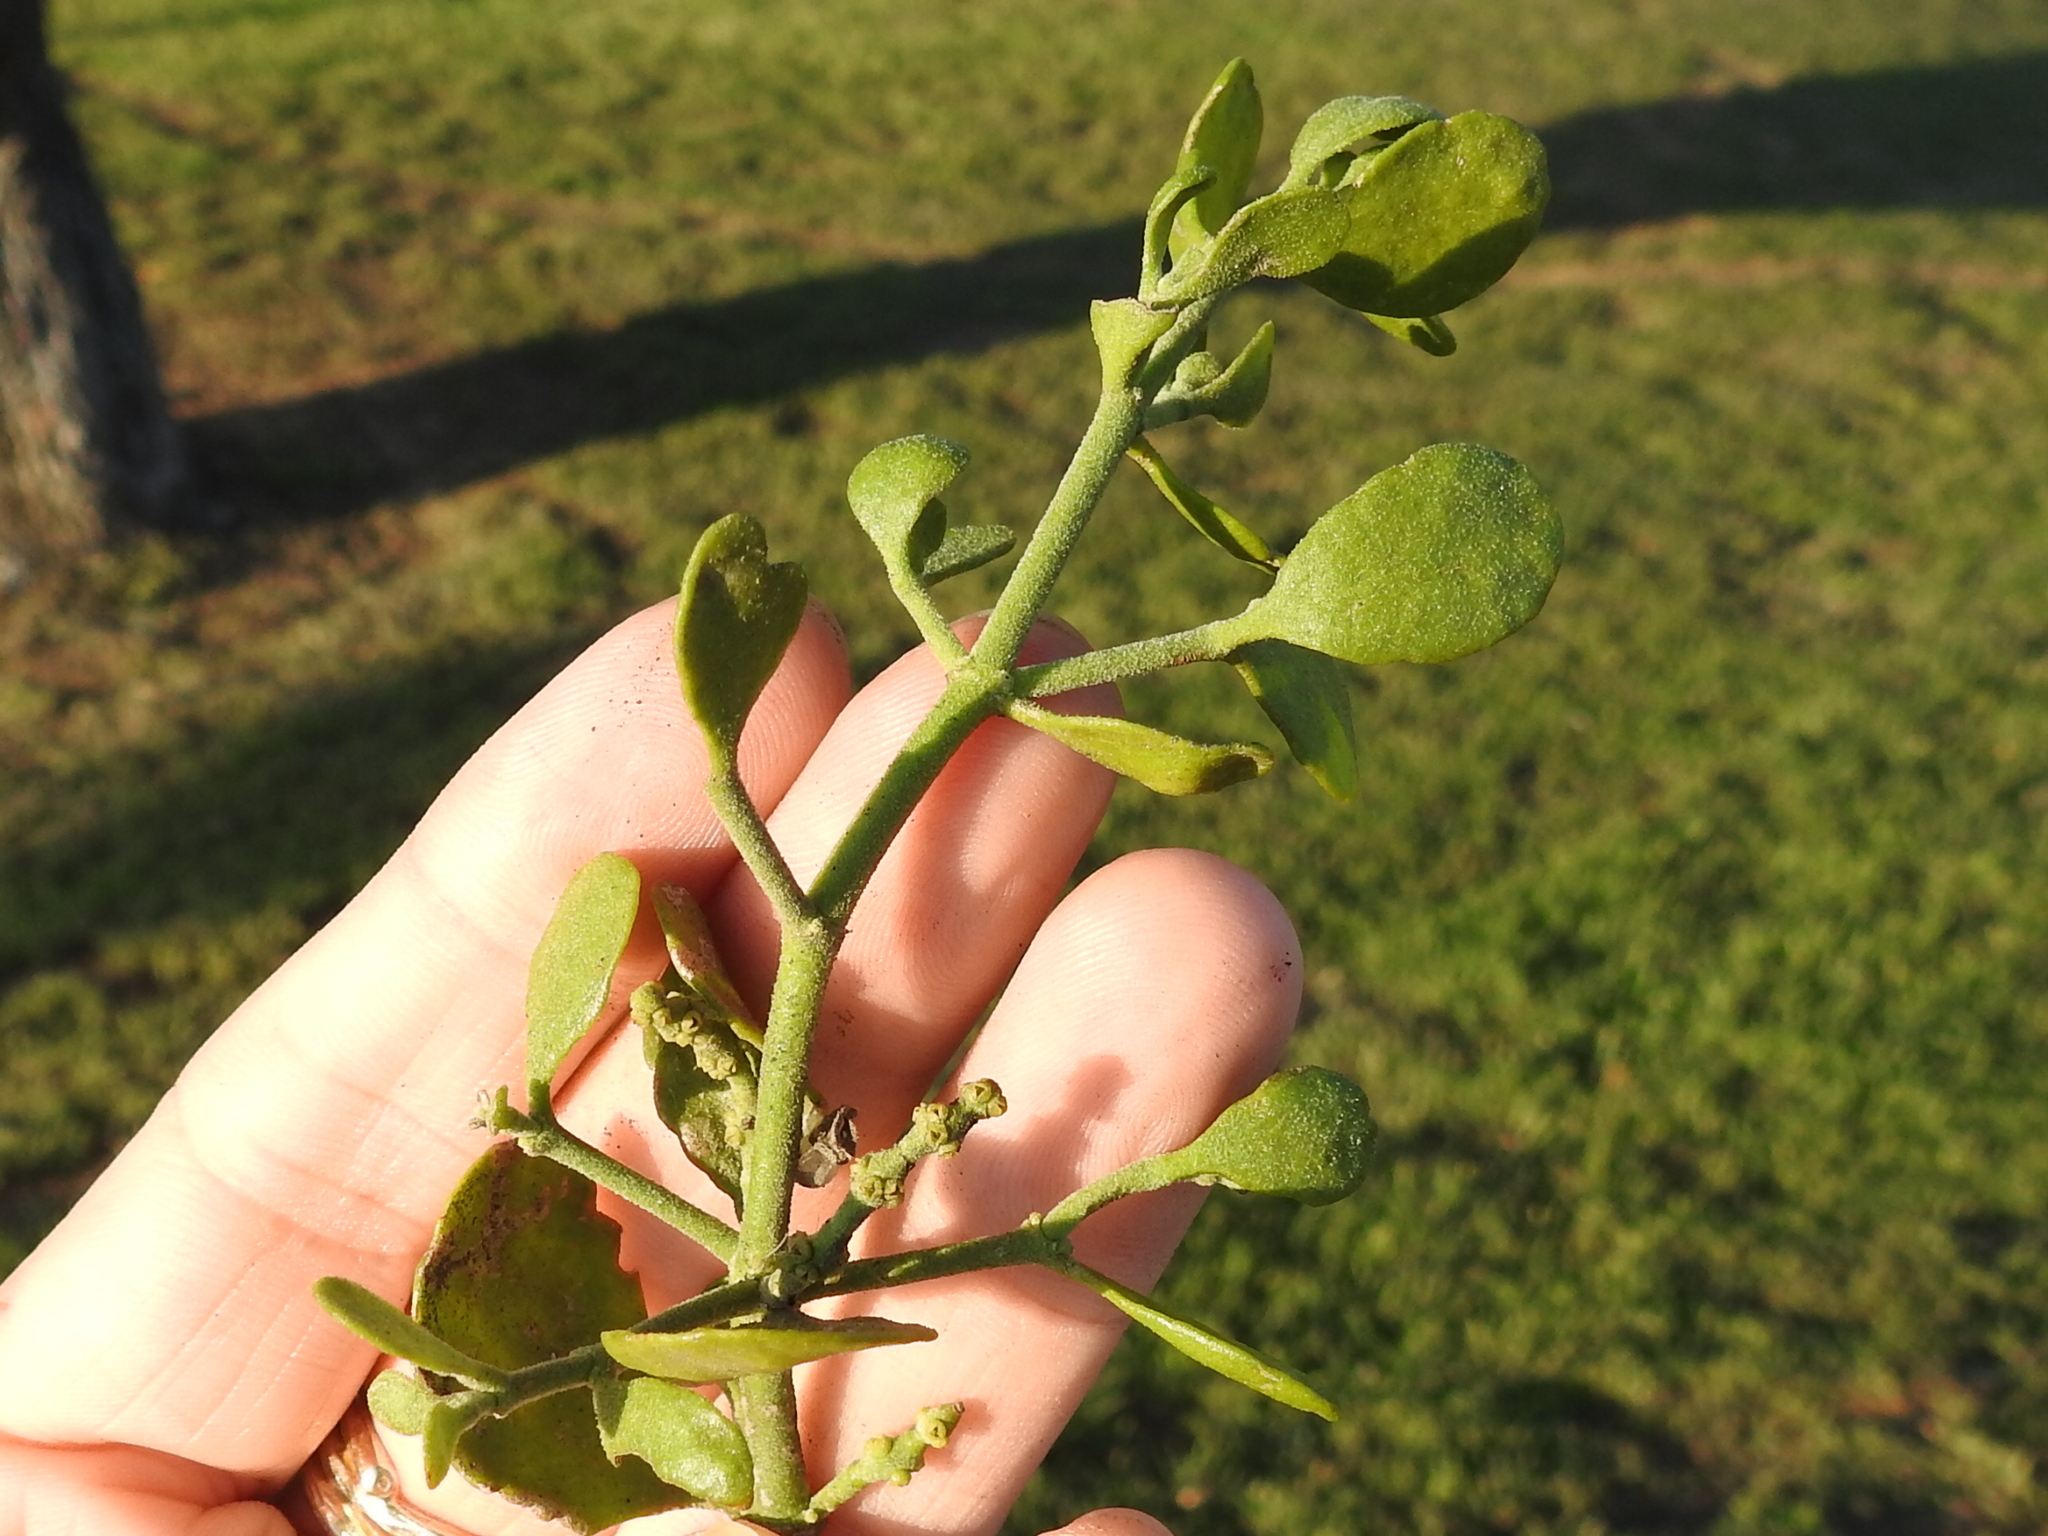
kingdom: Plantae
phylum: Tracheophyta
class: Magnoliopsida
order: Santalales
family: Viscaceae
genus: Phoradendron
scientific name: Phoradendron leucarpum
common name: Pacific mistletoe
